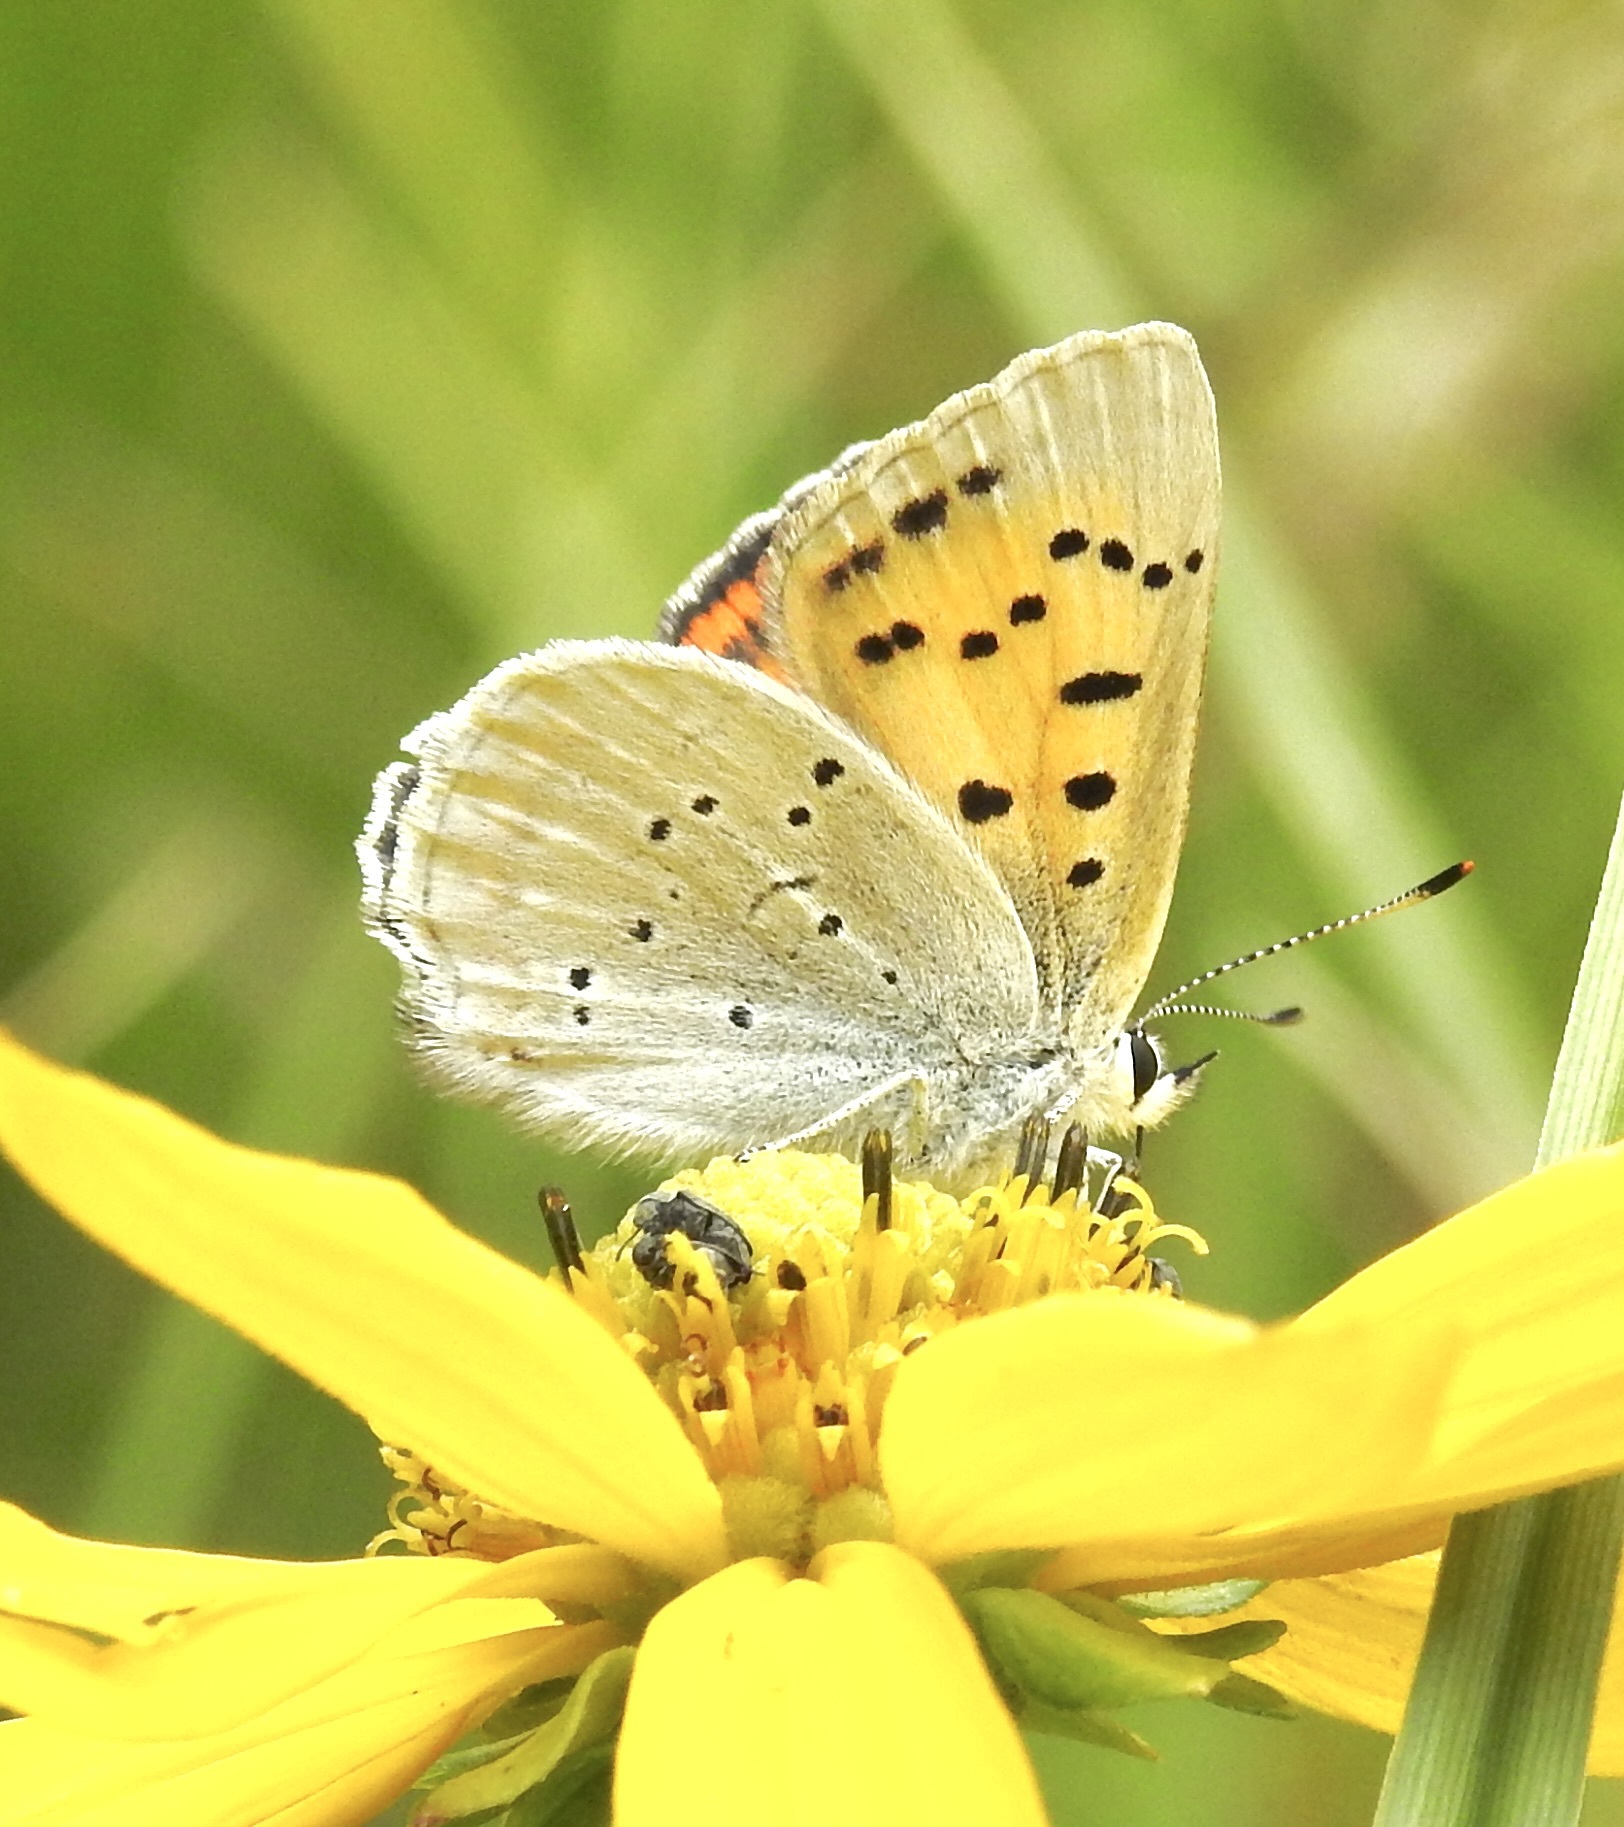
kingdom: Animalia
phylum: Arthropoda
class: Insecta
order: Lepidoptera
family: Lycaenidae
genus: Tharsalea
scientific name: Tharsalea rubidus
